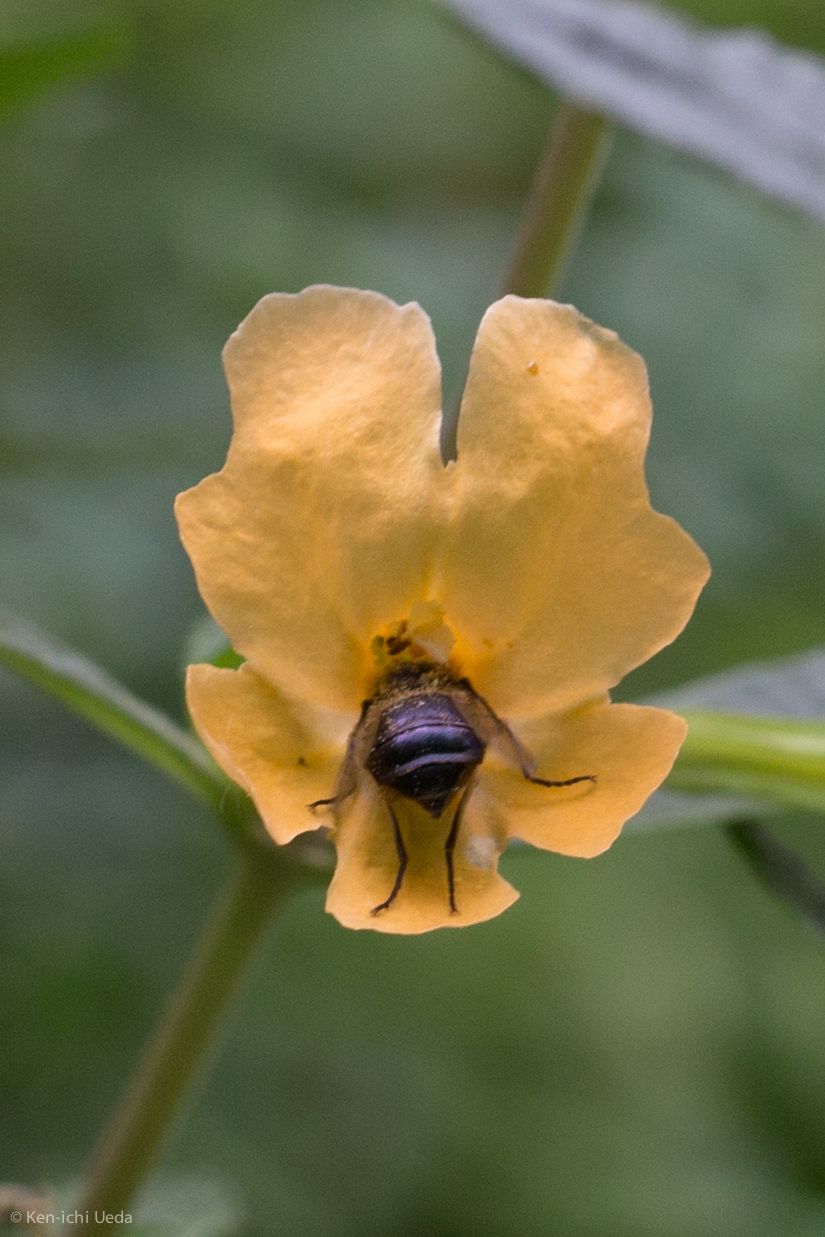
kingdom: Animalia
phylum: Arthropoda
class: Insecta
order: Diptera
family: Acroceridae
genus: Eulonchus
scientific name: Eulonchus tristis
